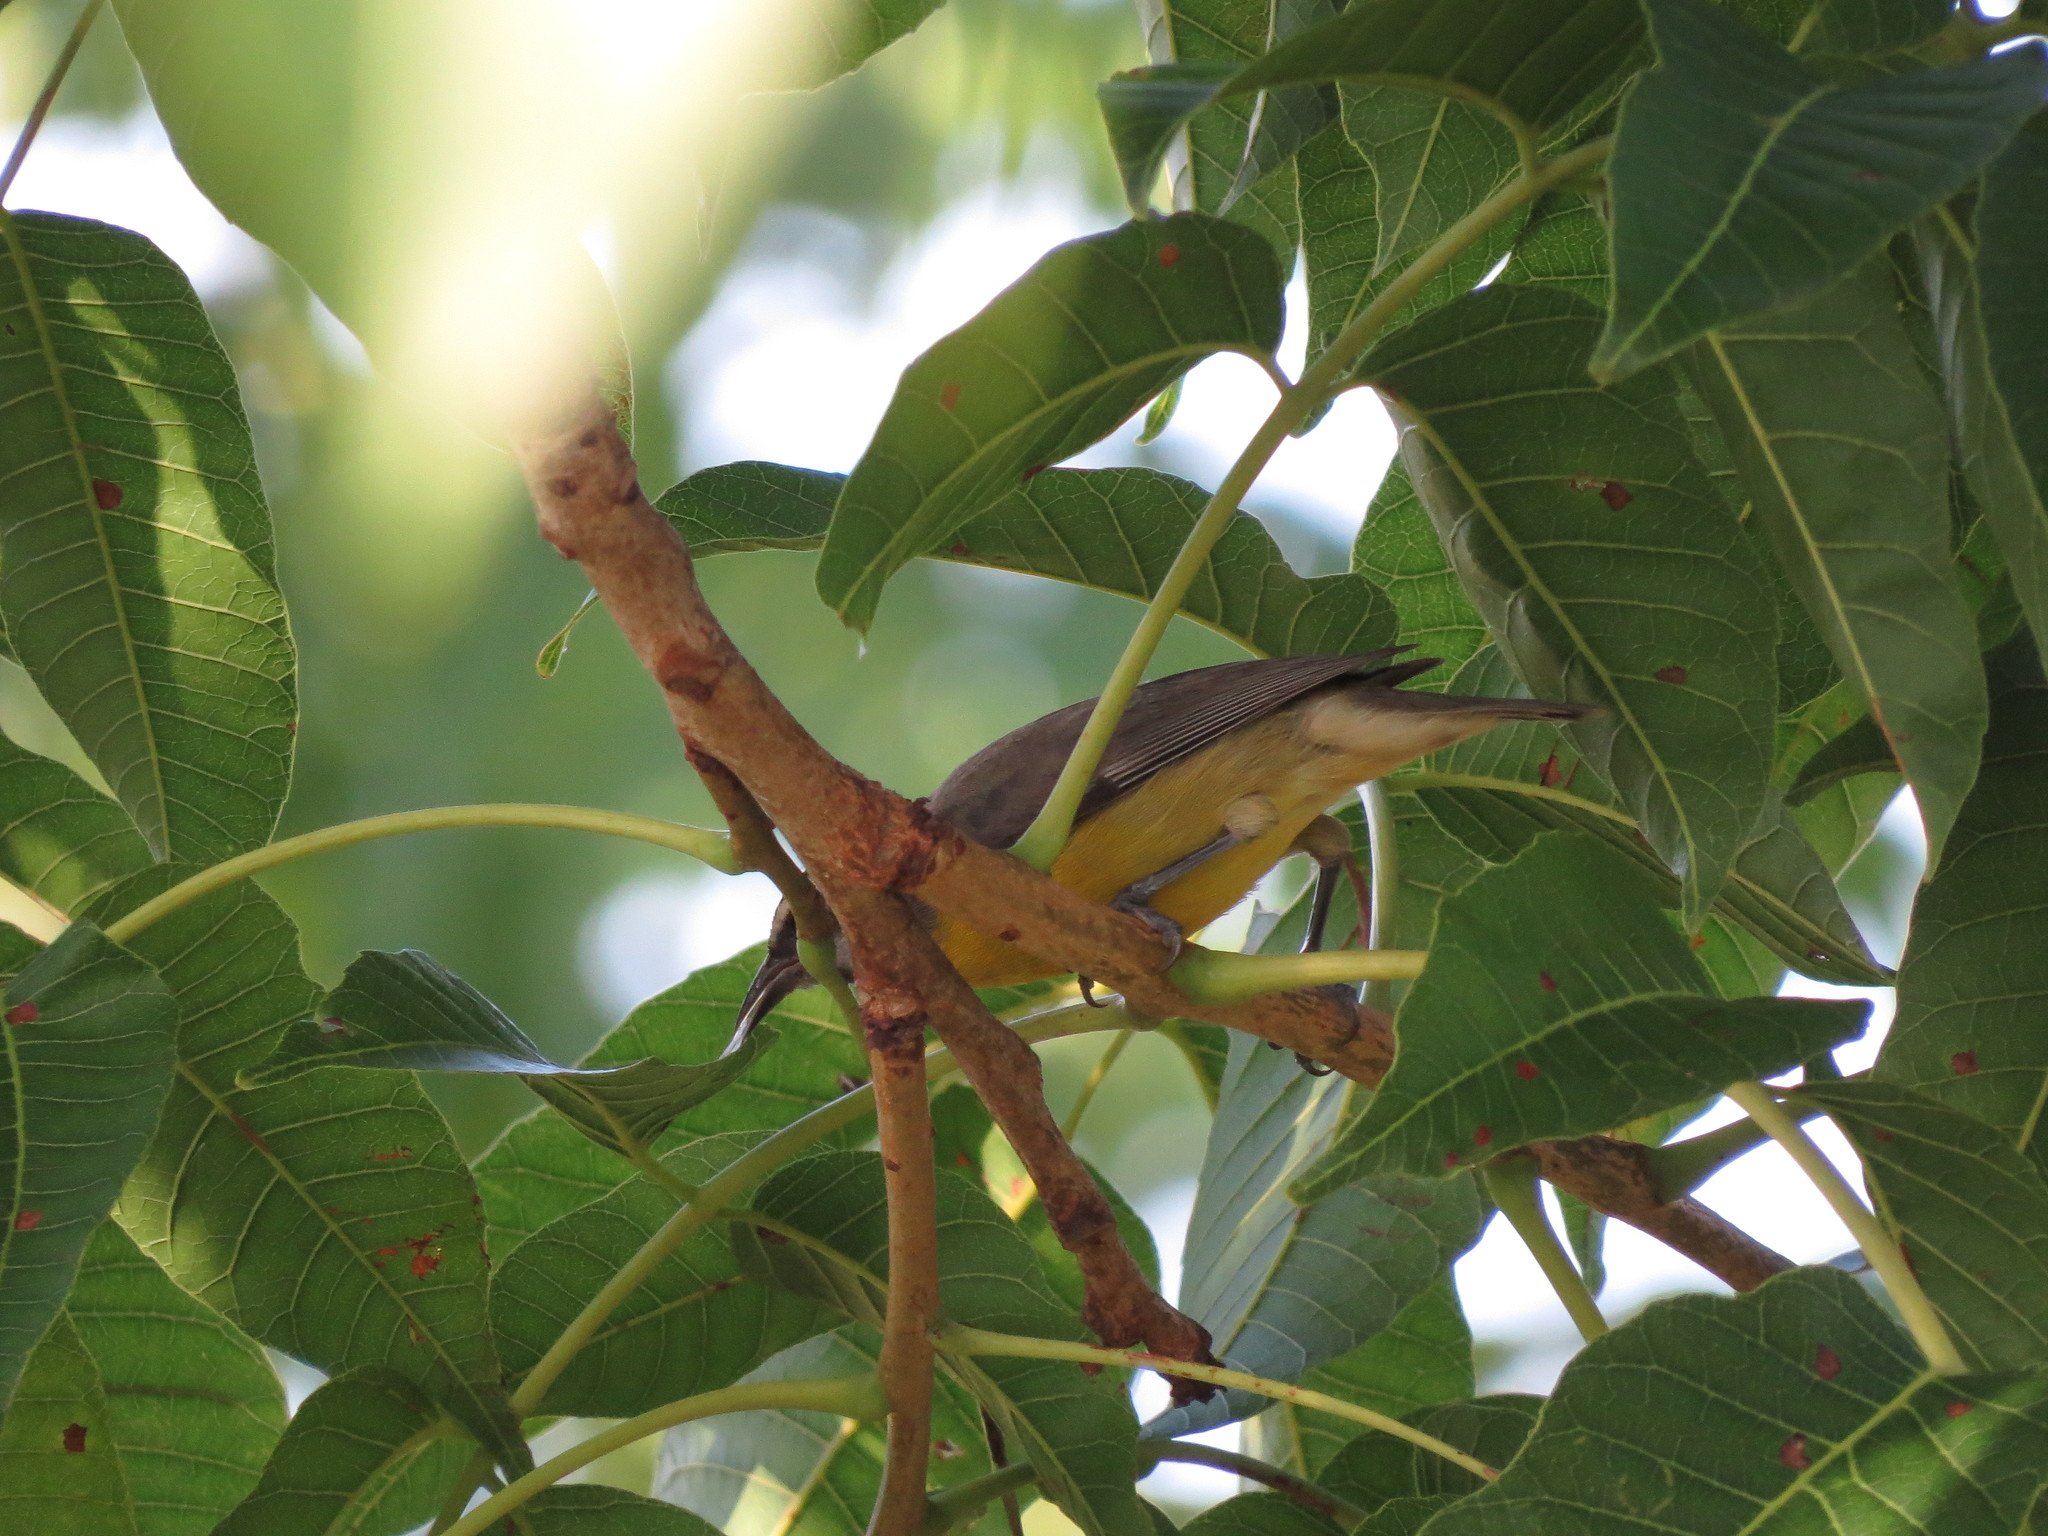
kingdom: Animalia
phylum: Chordata
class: Aves
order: Passeriformes
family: Thraupidae
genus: Coereba
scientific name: Coereba flaveola
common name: Bananaquit
